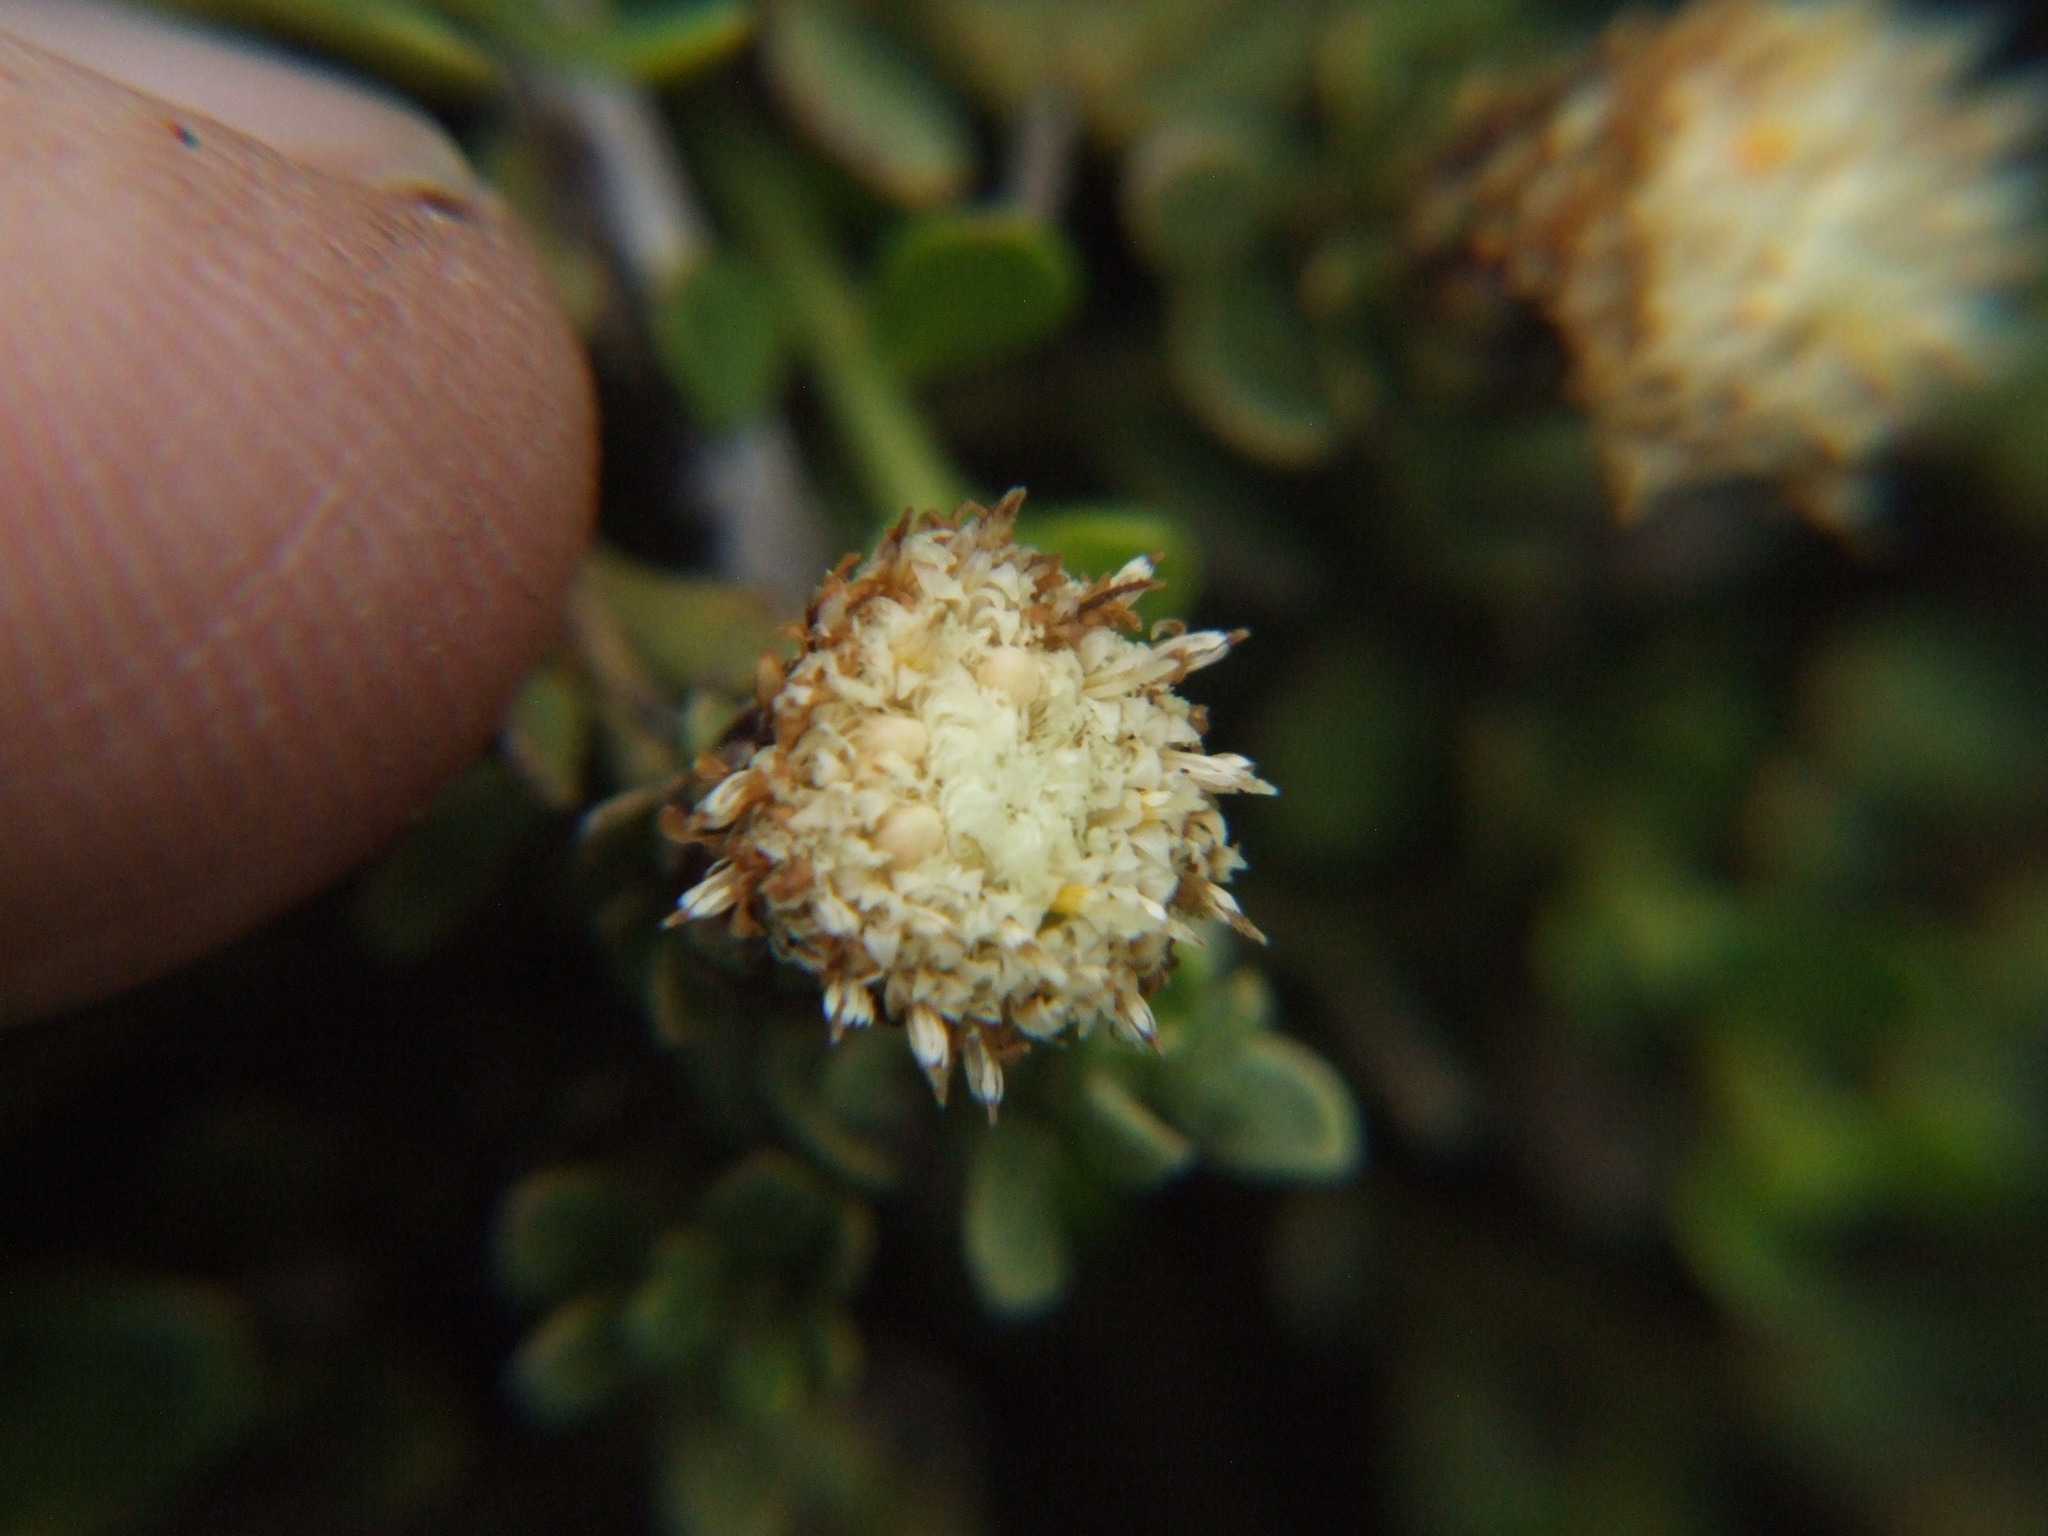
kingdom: Plantae
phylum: Tracheophyta
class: Magnoliopsida
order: Asterales
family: Asteraceae
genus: Baccharis
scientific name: Baccharis caespitosa
